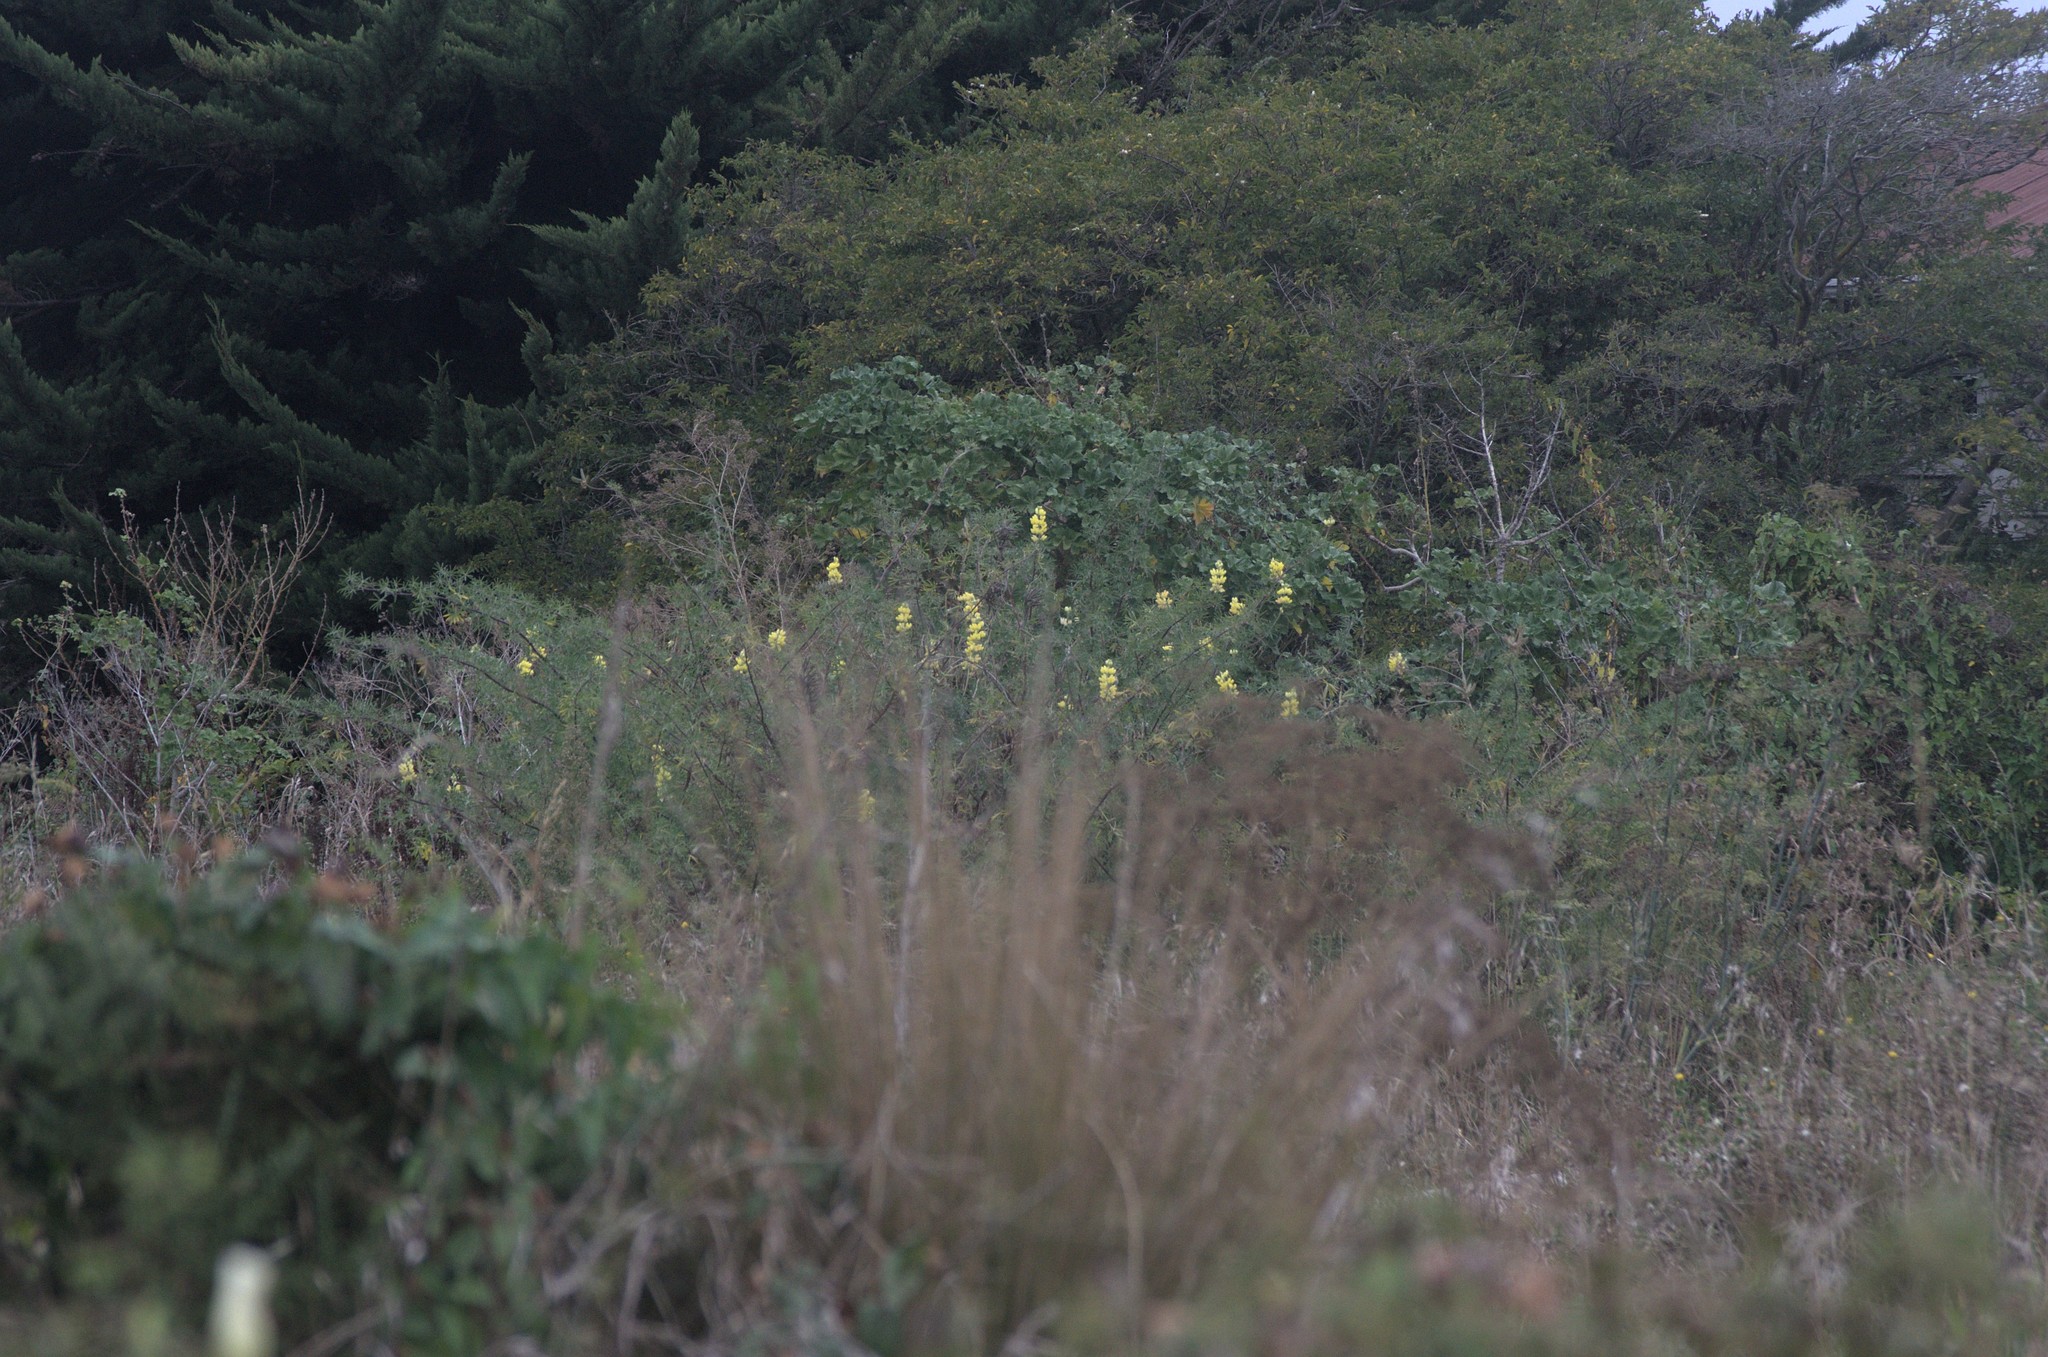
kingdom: Plantae
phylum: Tracheophyta
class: Magnoliopsida
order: Fabales
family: Fabaceae
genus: Lupinus
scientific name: Lupinus arboreus
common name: Yellow bush lupine
